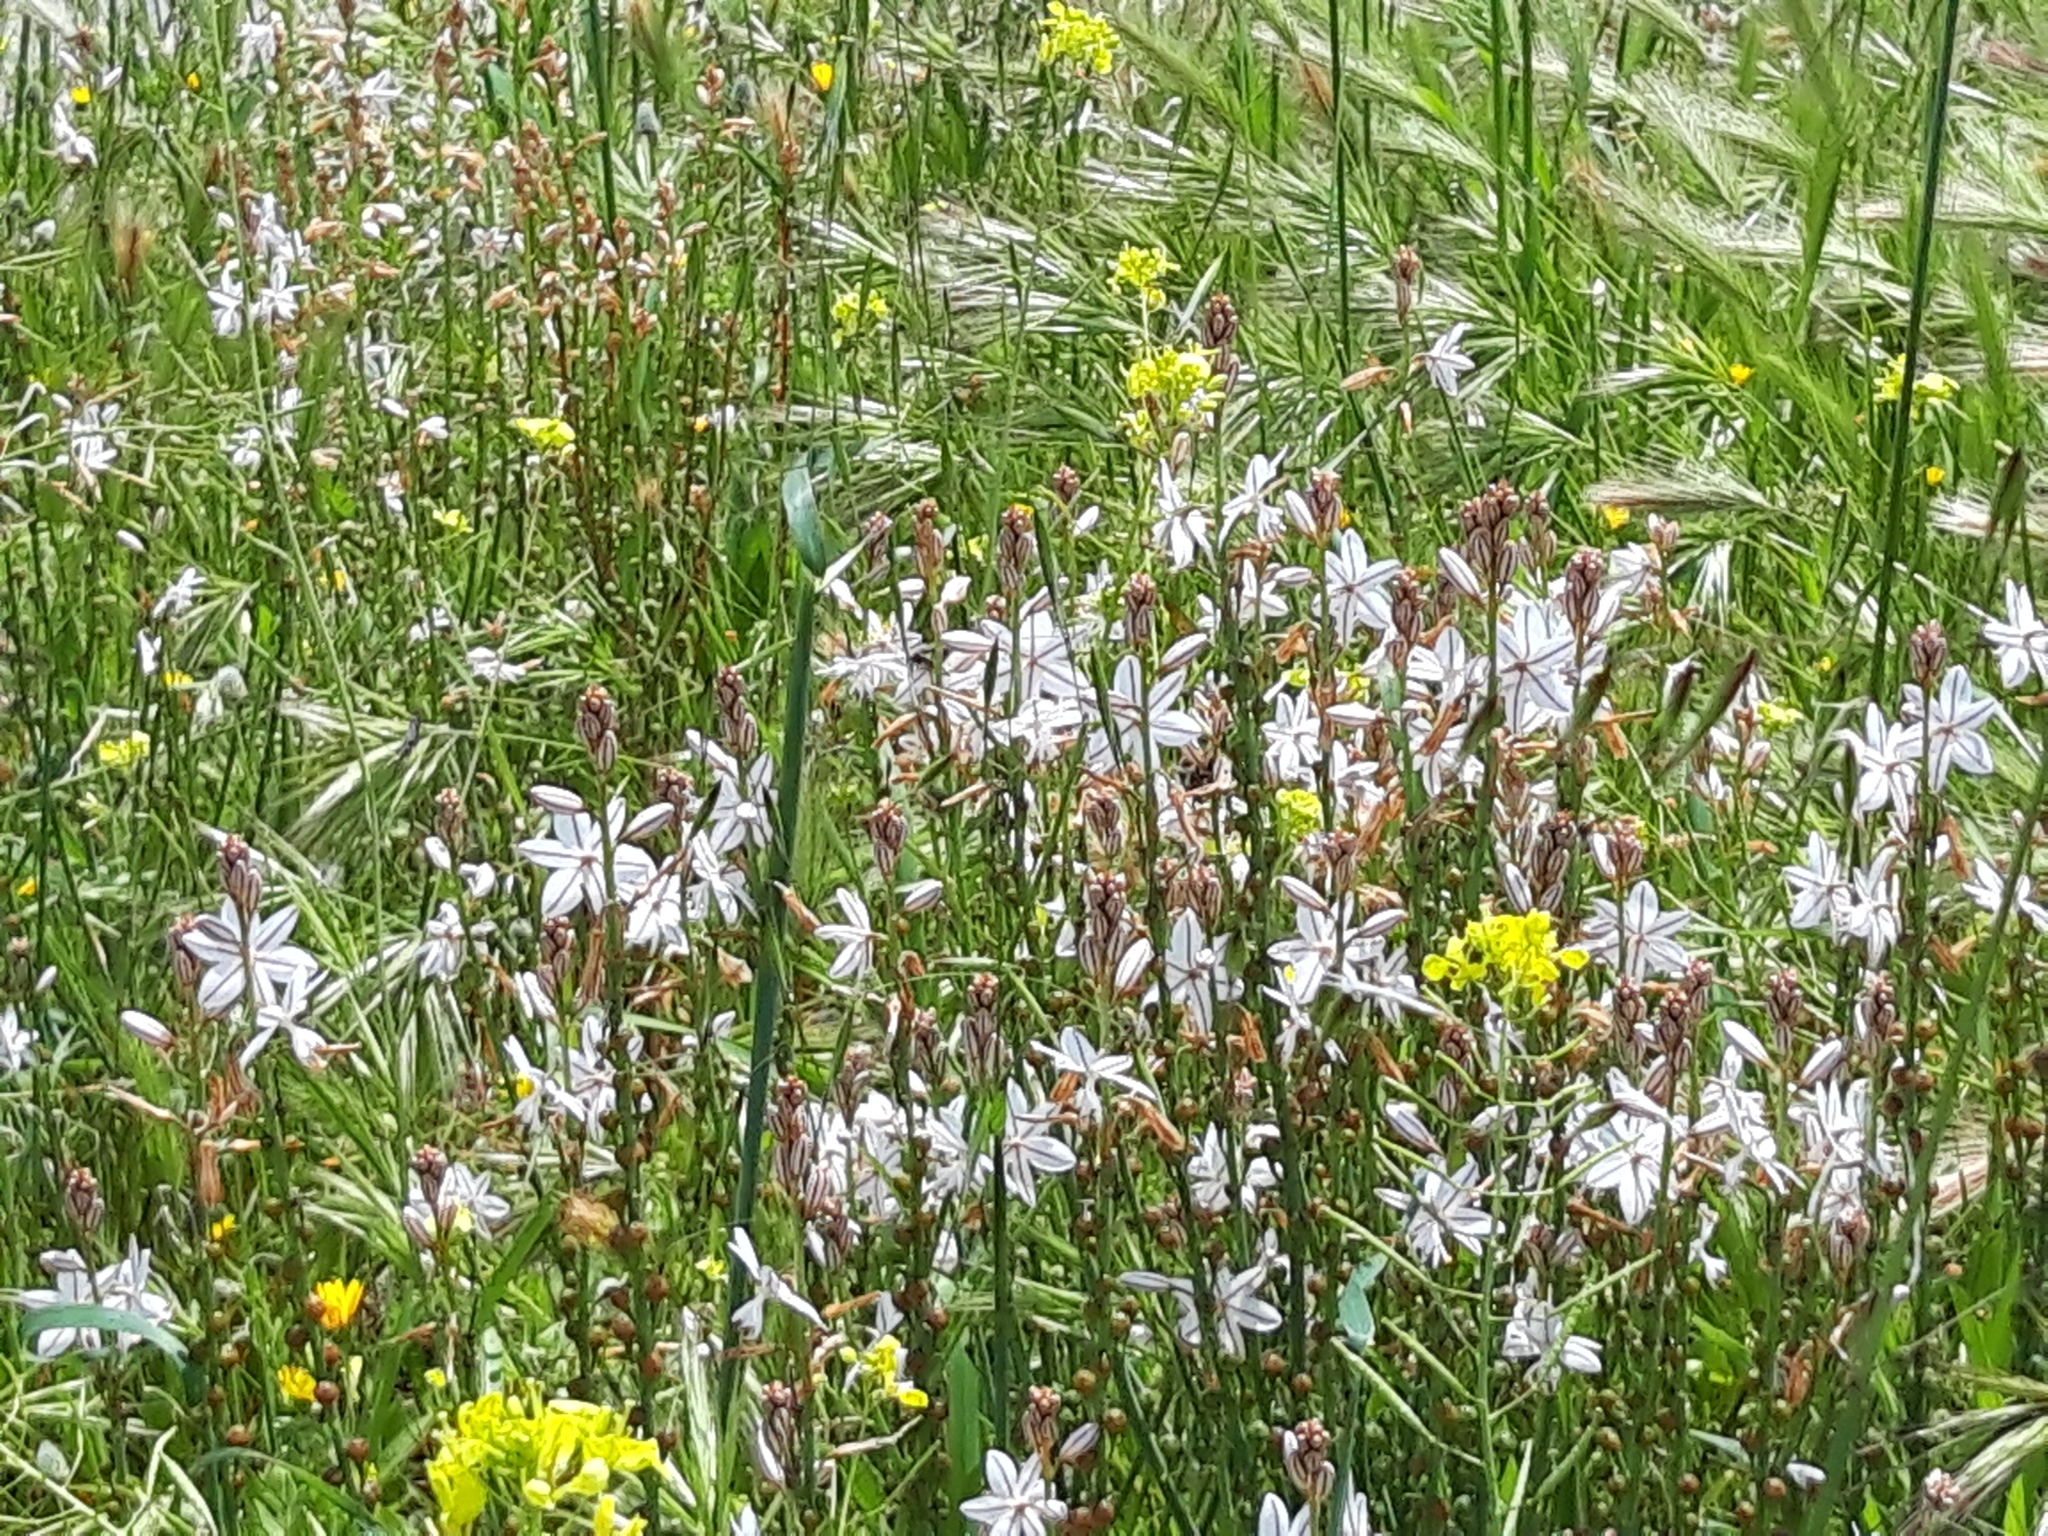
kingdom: Plantae
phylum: Tracheophyta
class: Liliopsida
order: Asparagales
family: Asphodelaceae
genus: Asphodelus
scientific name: Asphodelus fistulosus
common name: Onionweed
